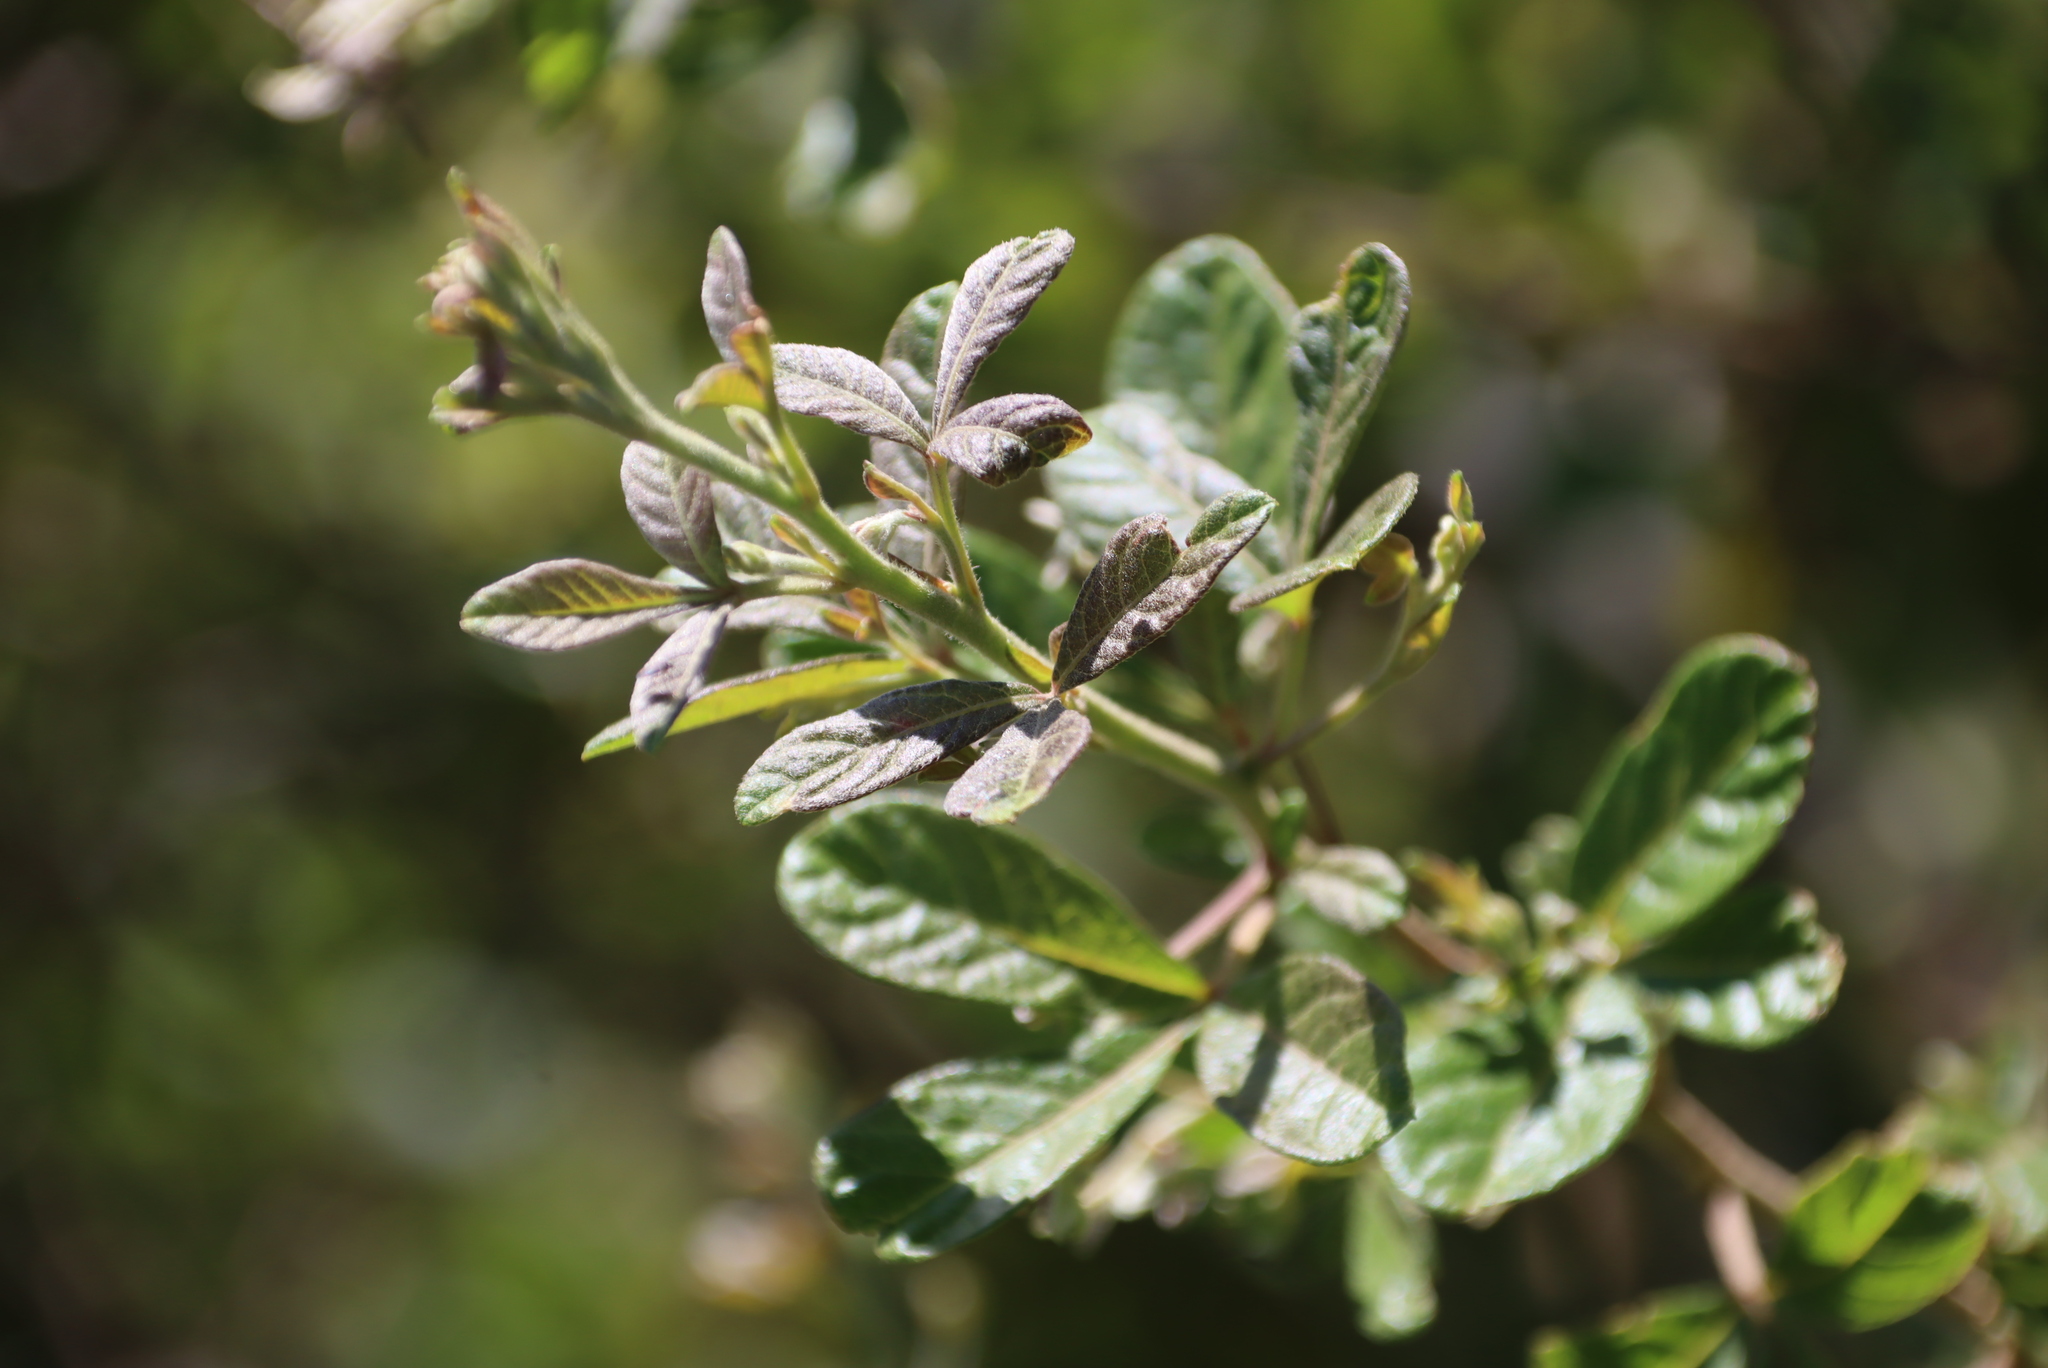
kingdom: Plantae
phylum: Tracheophyta
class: Magnoliopsida
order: Sapindales
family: Anacardiaceae
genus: Searsia
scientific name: Searsia rehmanniana
